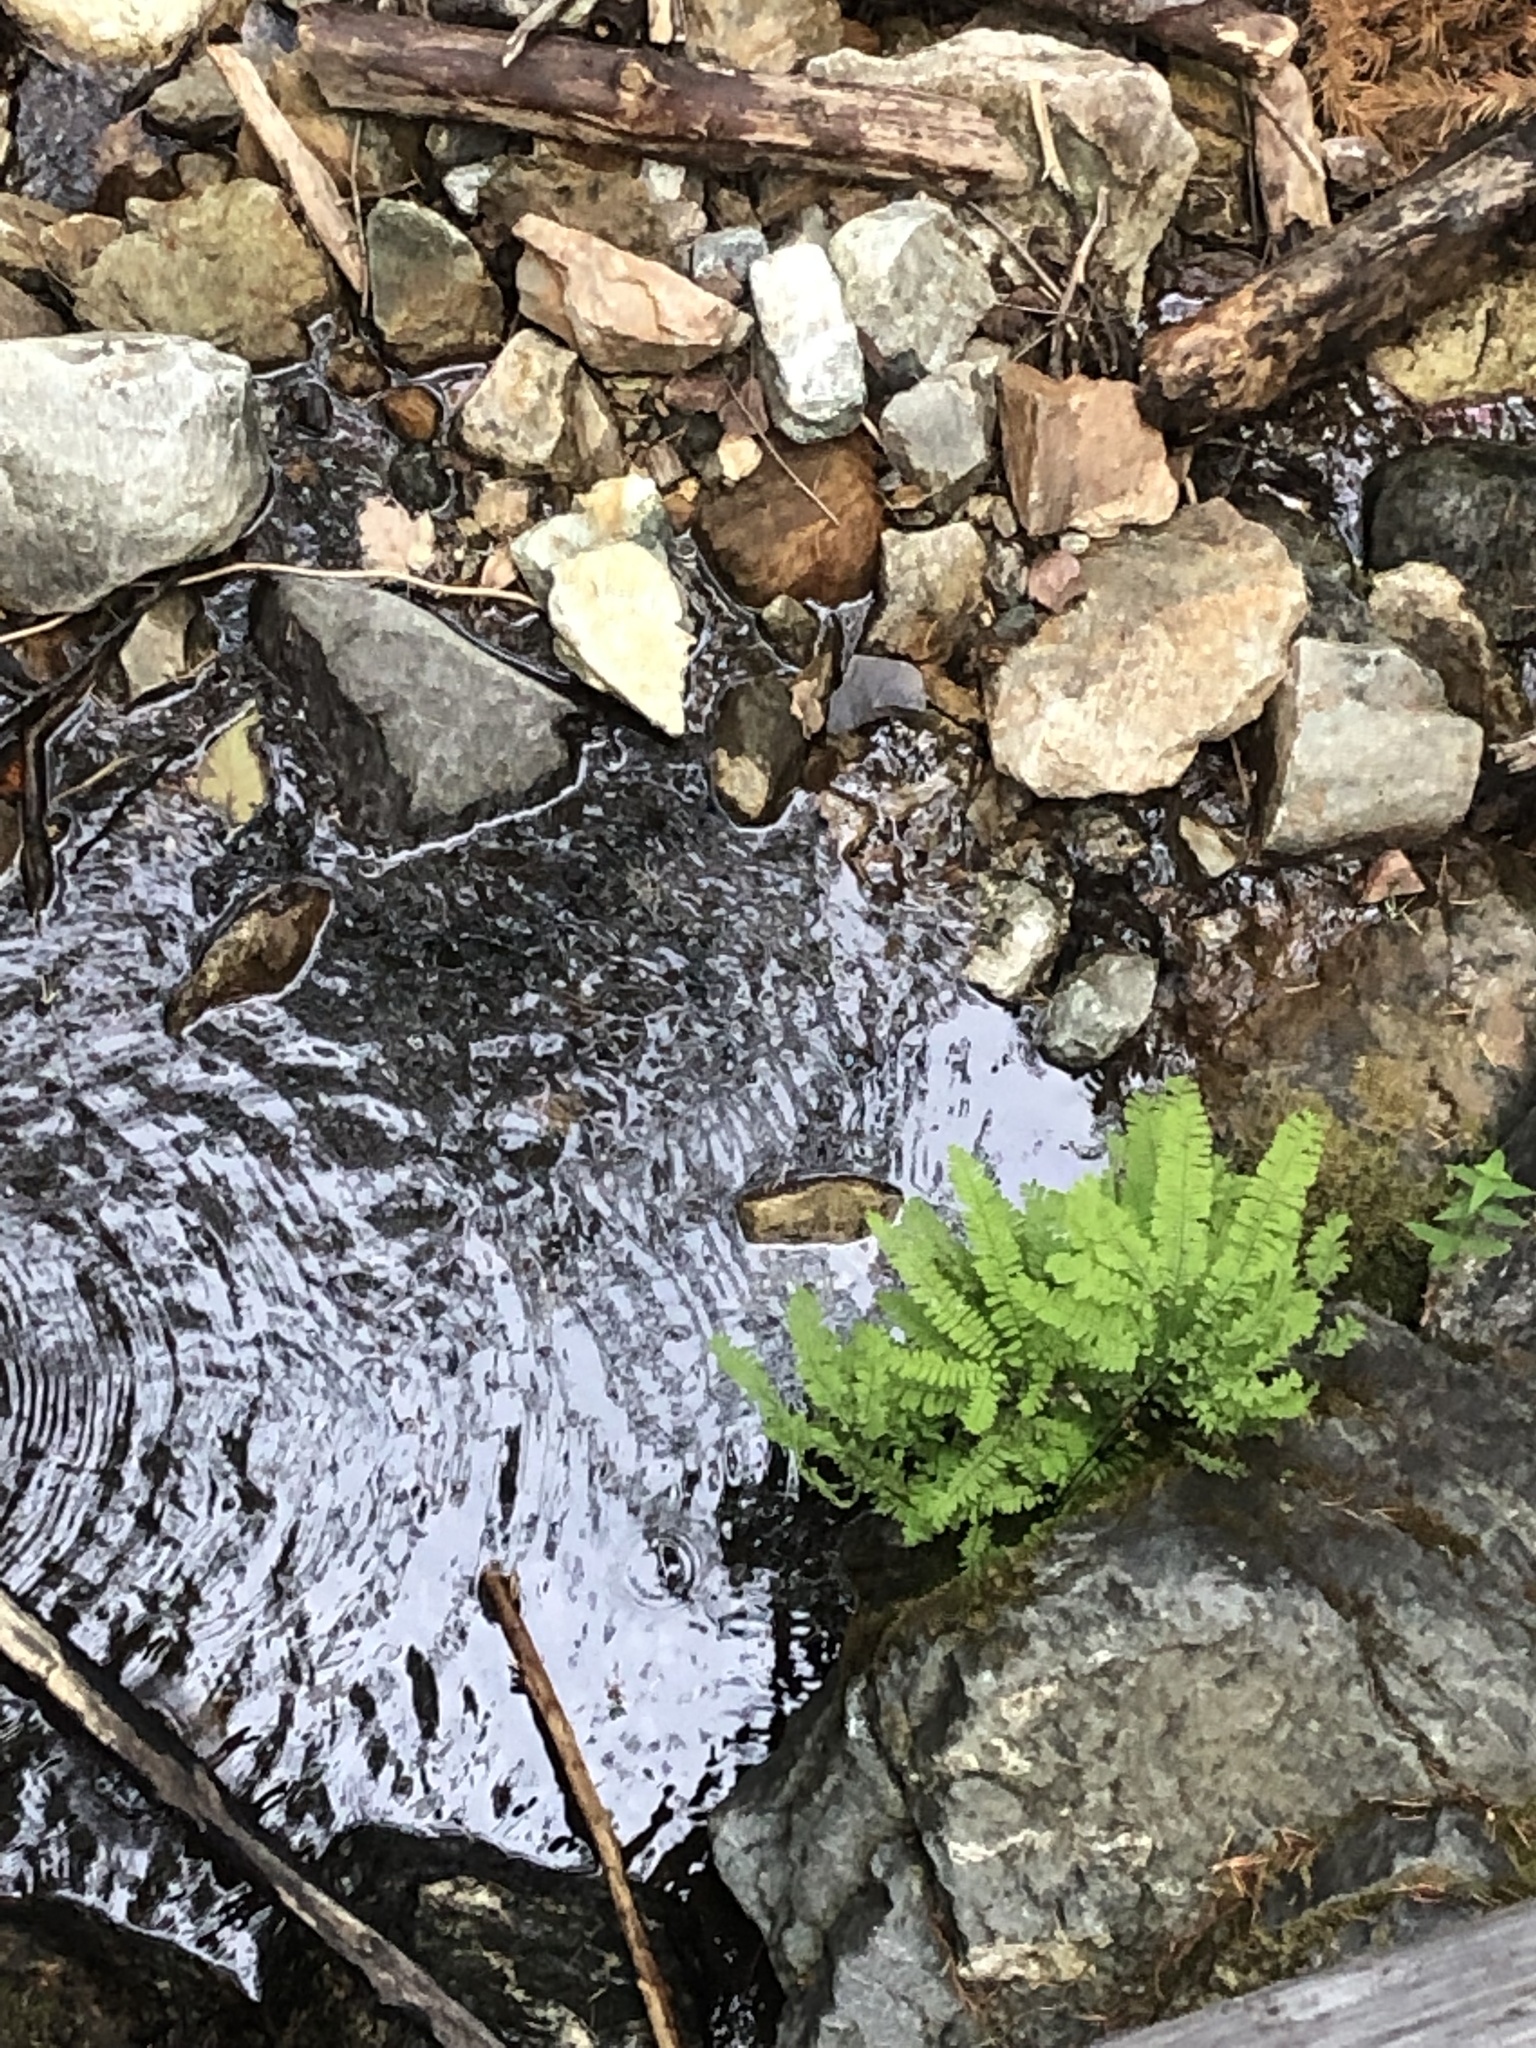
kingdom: Plantae
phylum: Tracheophyta
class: Polypodiopsida
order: Polypodiales
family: Pteridaceae
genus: Adiantum
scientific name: Adiantum aleuticum
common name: Aleutian maidenhair fern
